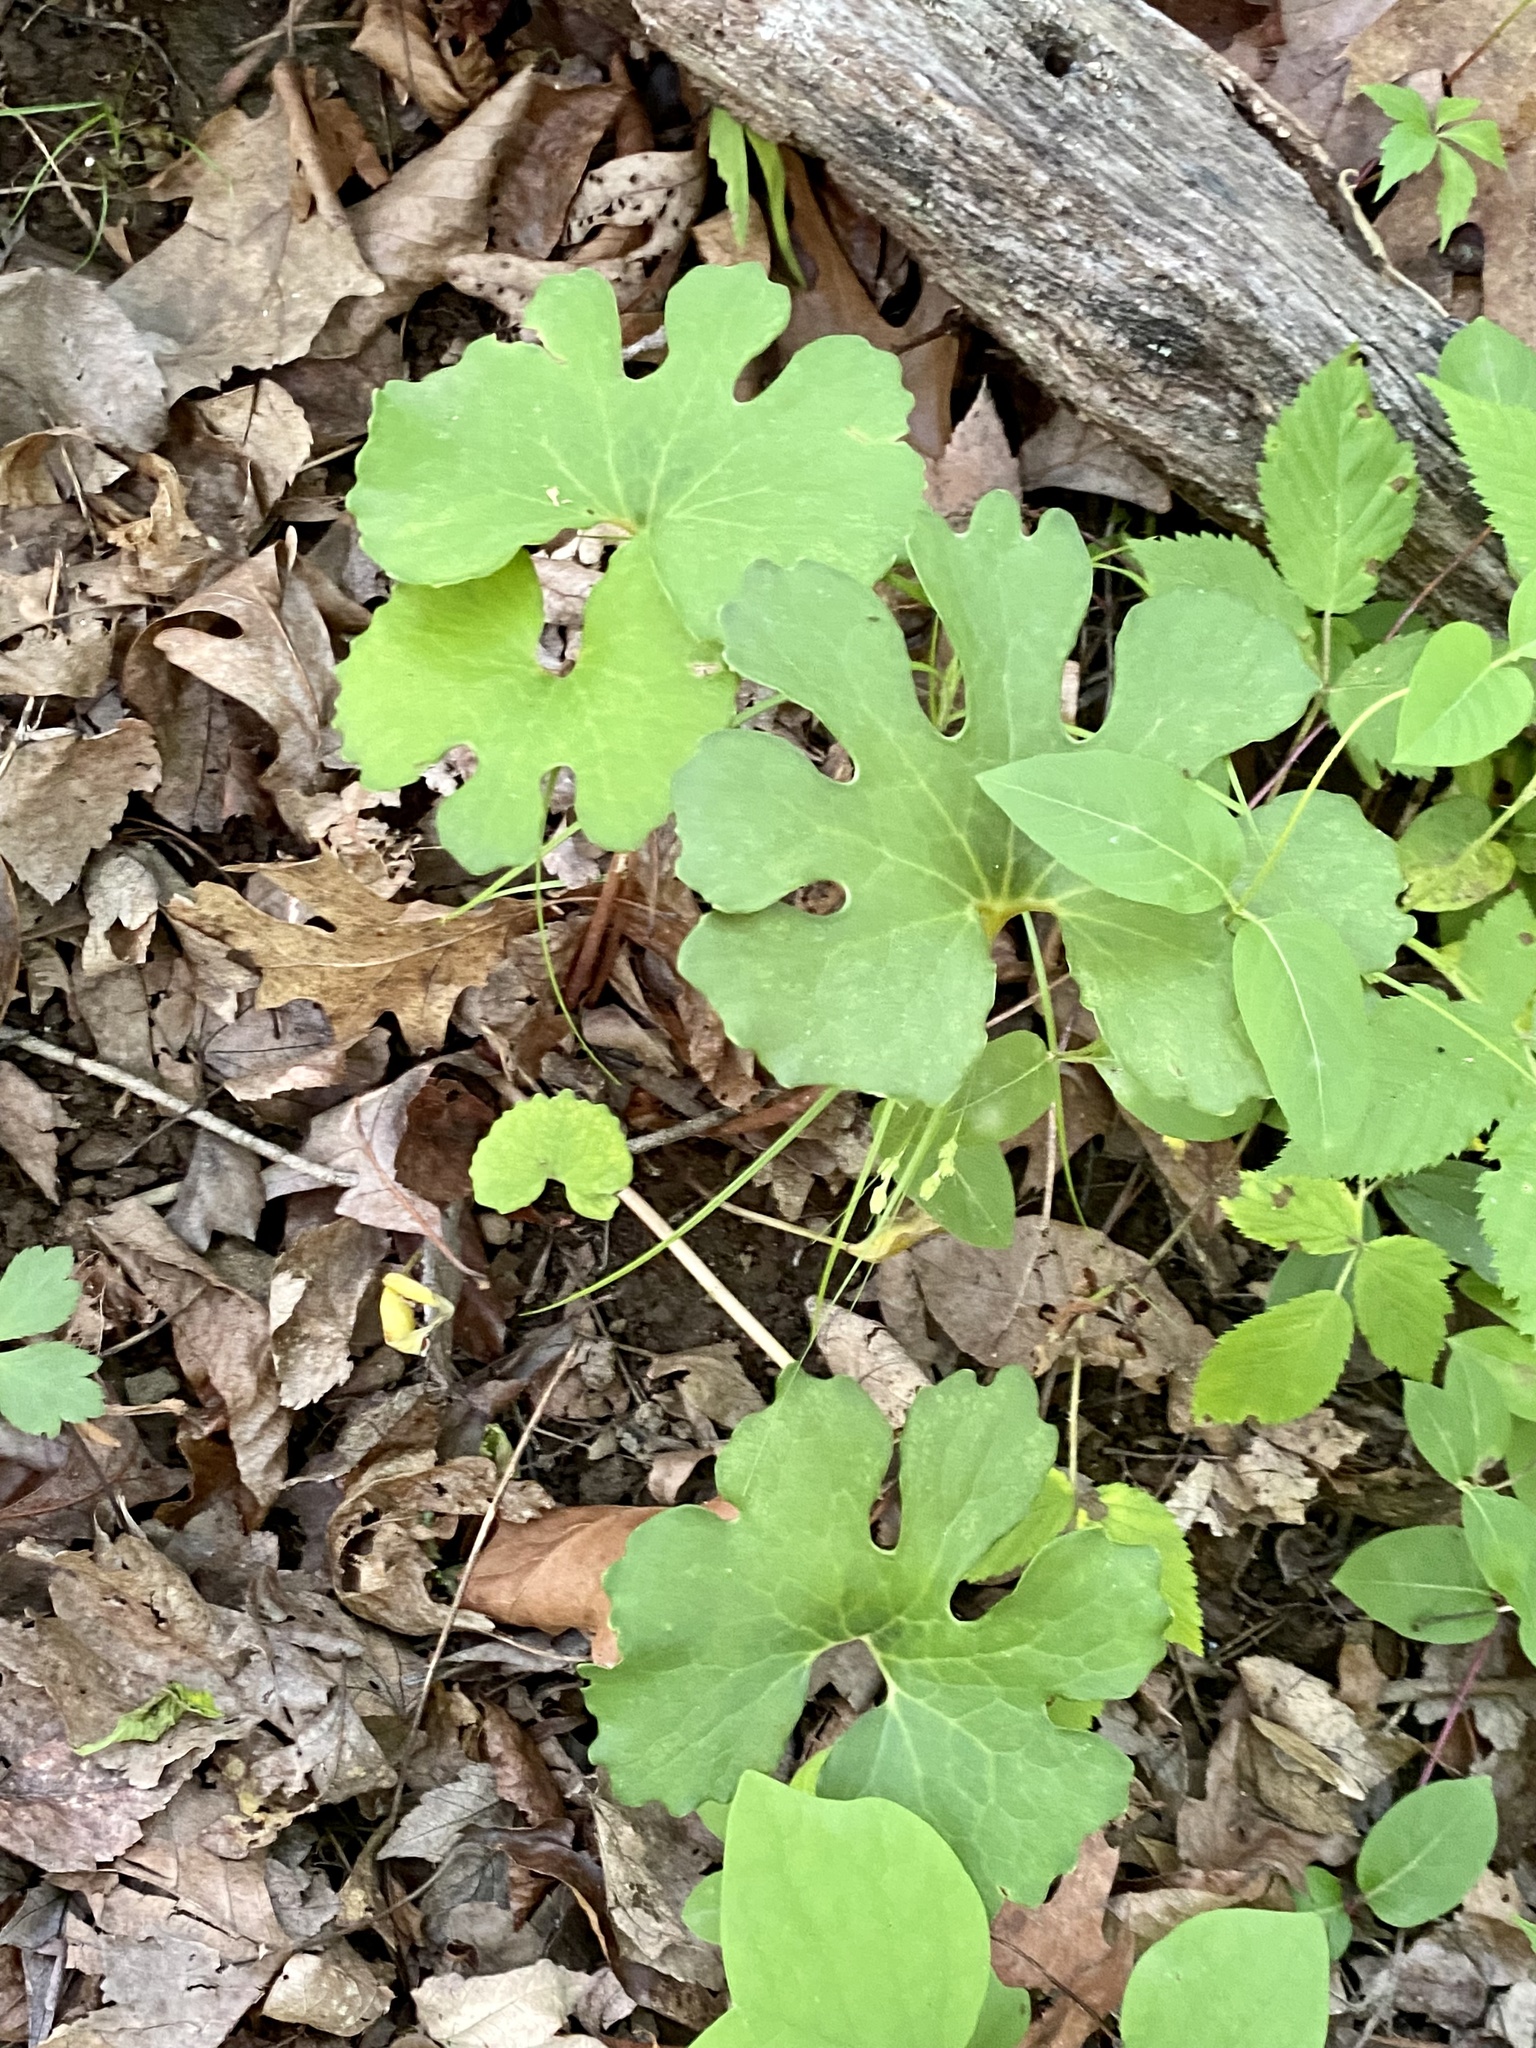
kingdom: Plantae
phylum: Tracheophyta
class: Magnoliopsida
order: Ranunculales
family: Papaveraceae
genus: Sanguinaria
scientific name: Sanguinaria canadensis
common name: Bloodroot
